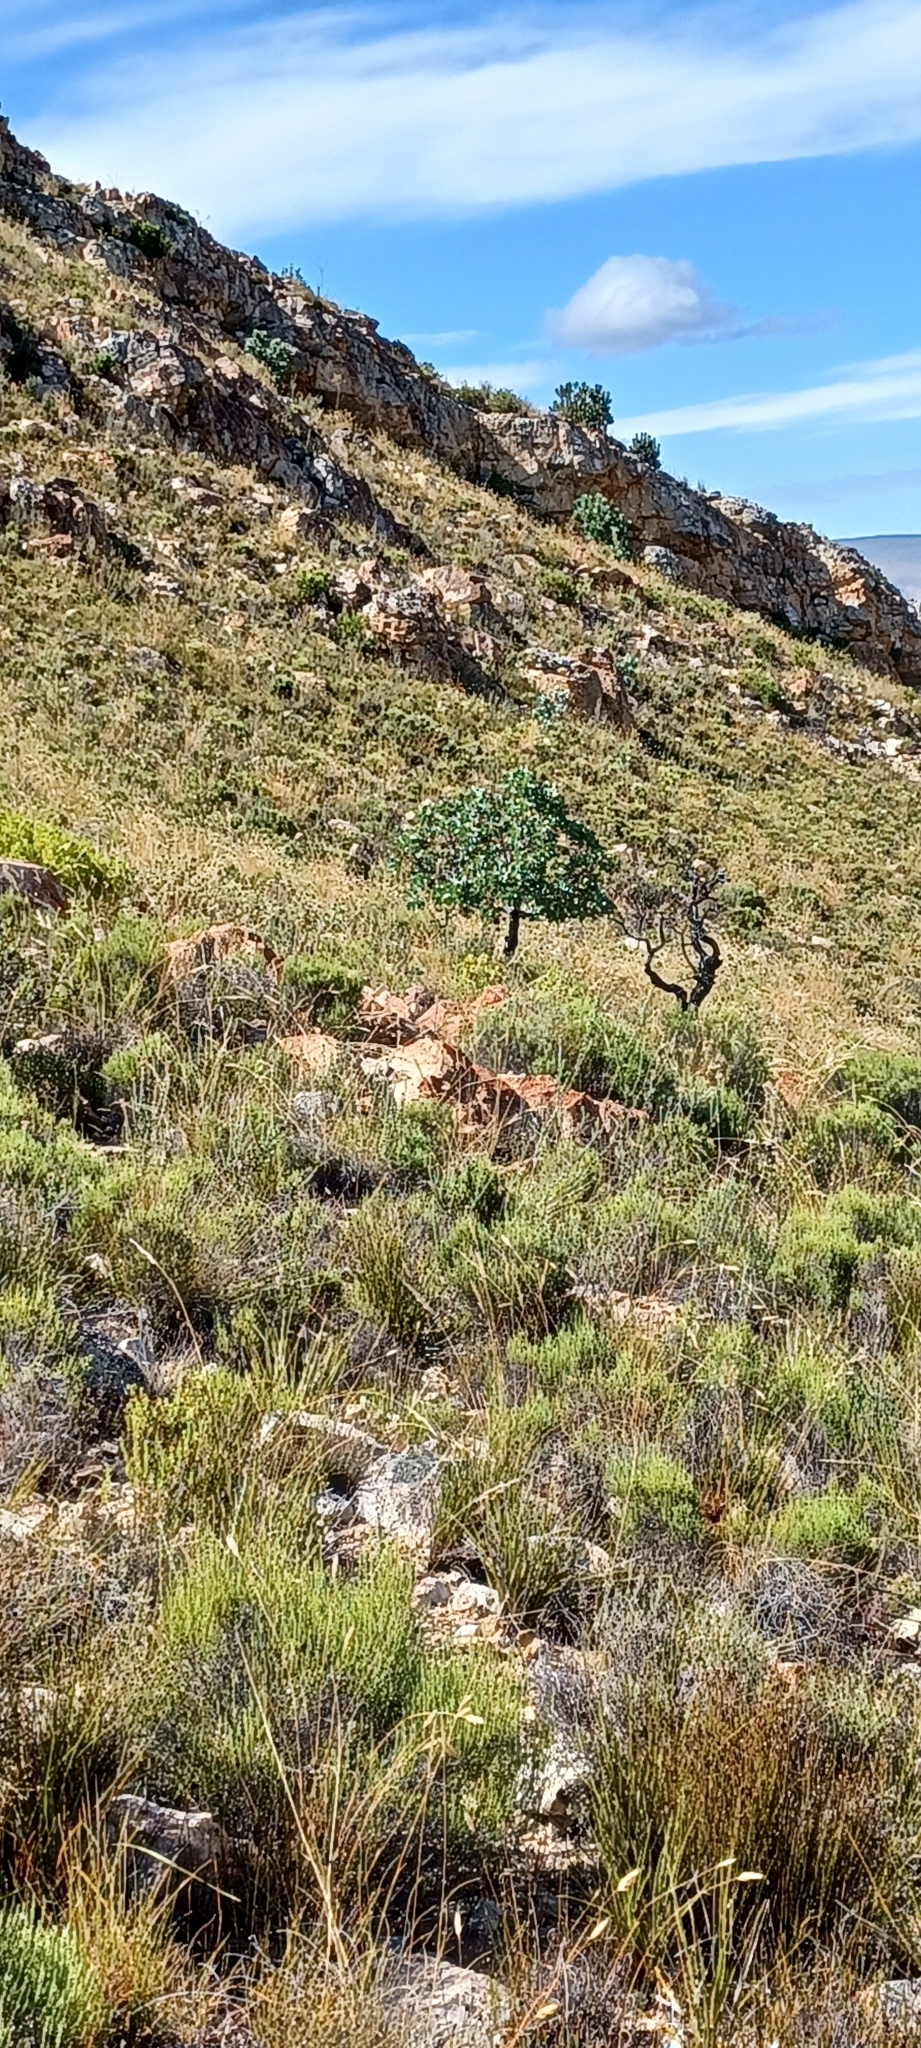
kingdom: Plantae
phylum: Tracheophyta
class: Magnoliopsida
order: Proteales
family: Proteaceae
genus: Protea
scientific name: Protea nitida
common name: Tree protea
